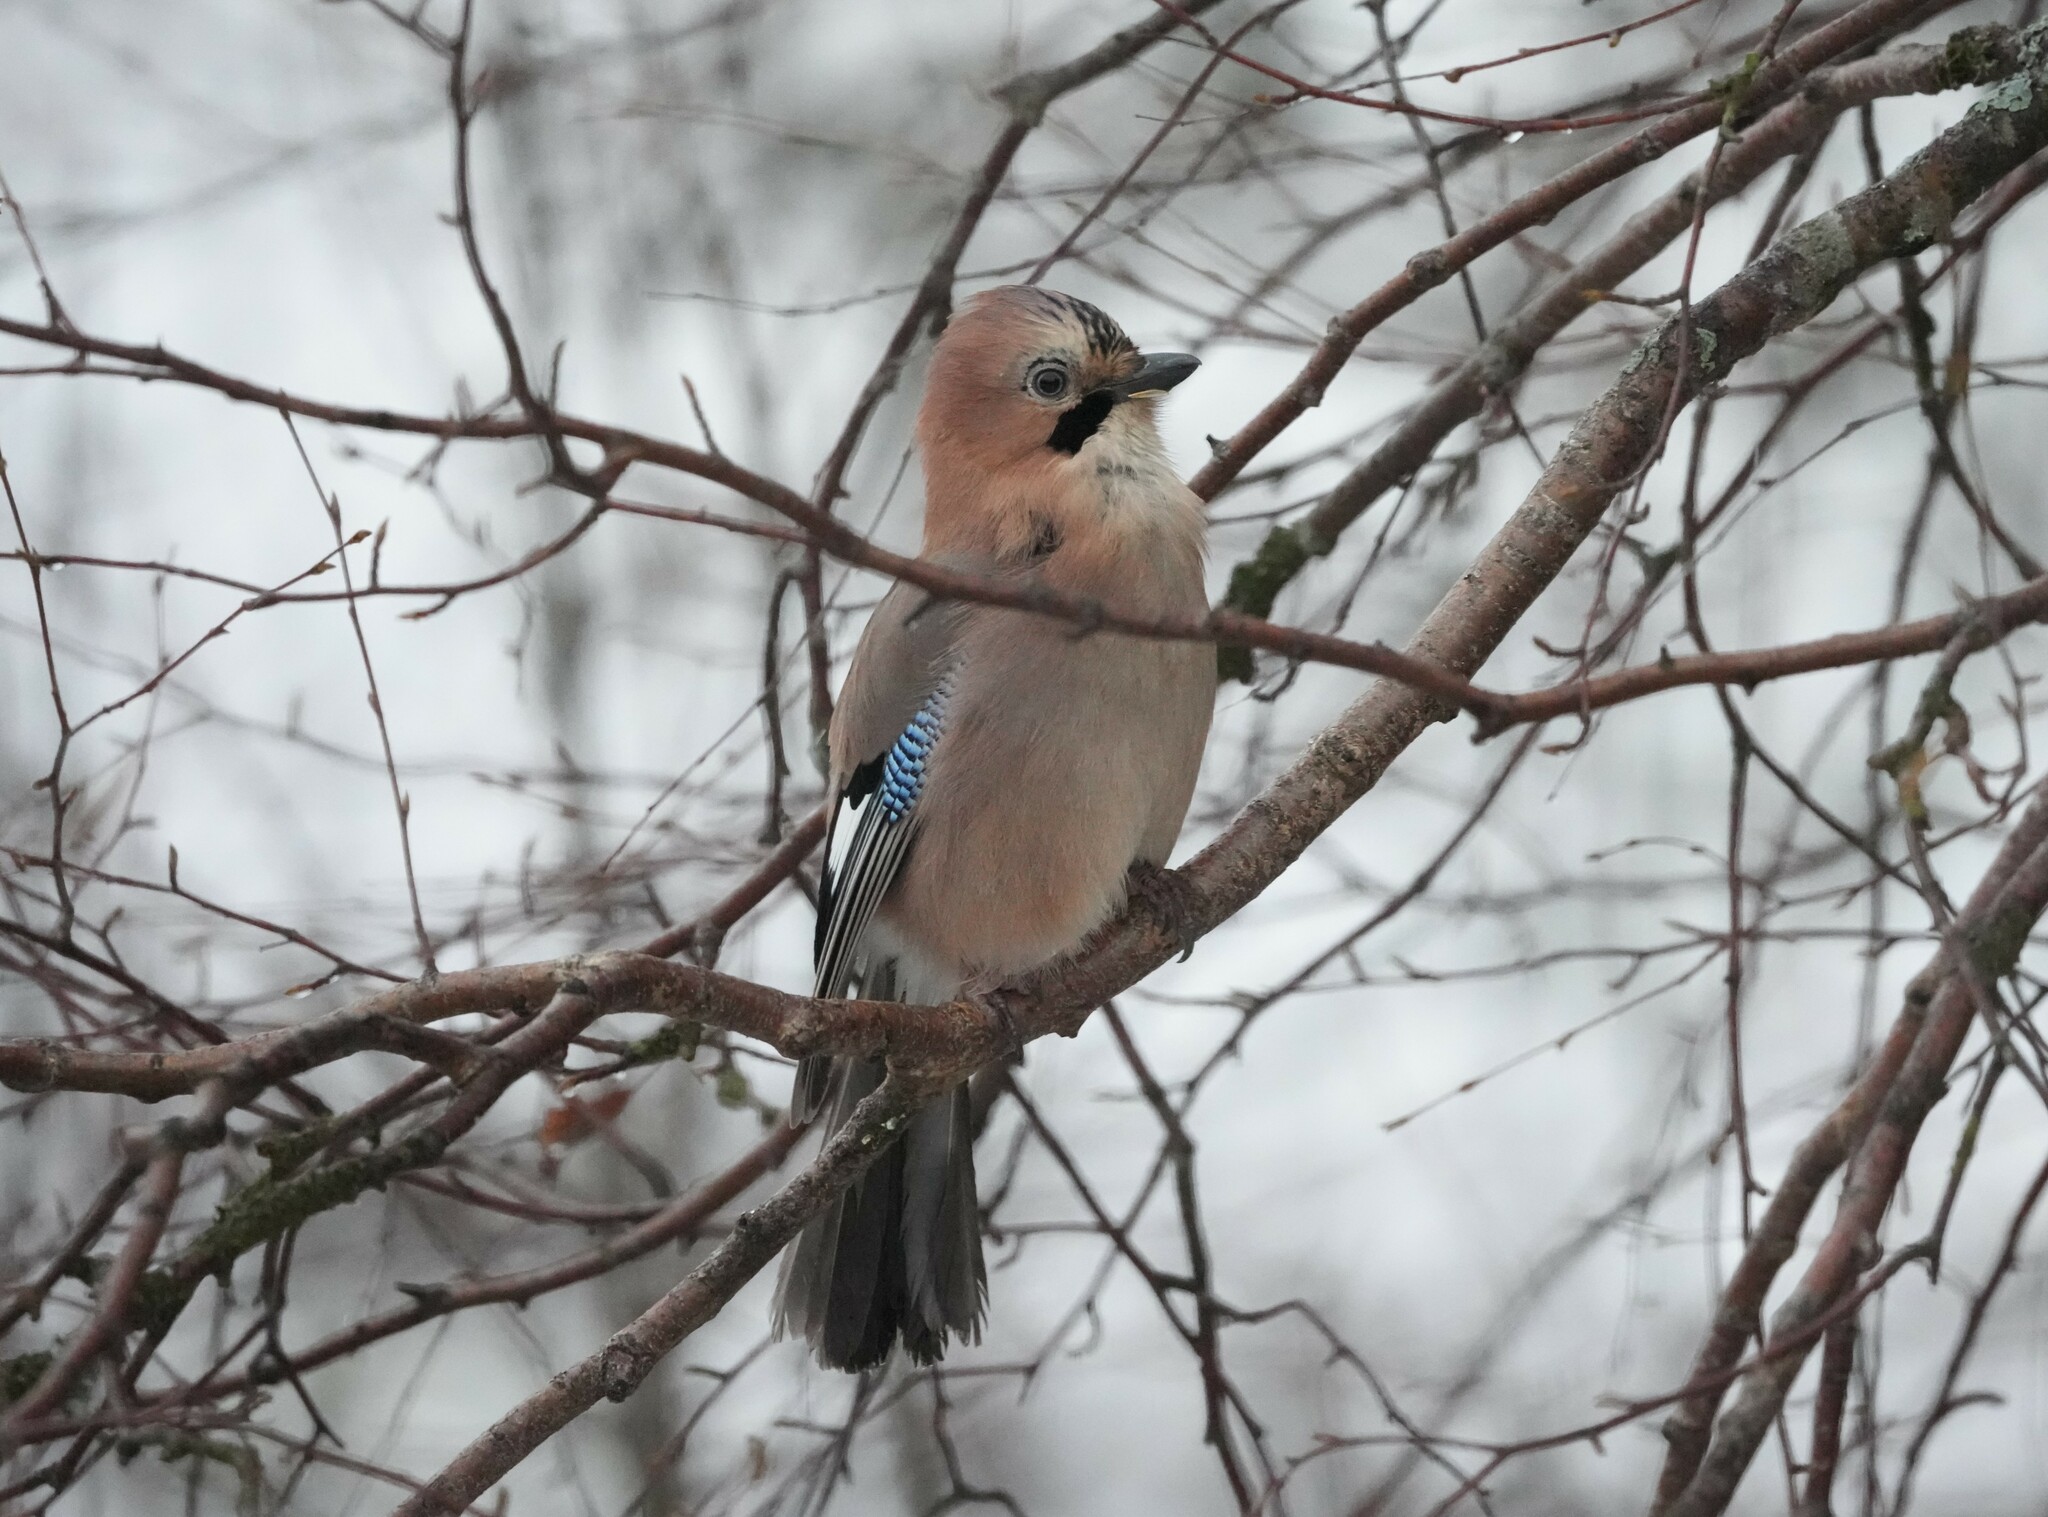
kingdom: Animalia
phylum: Chordata
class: Aves
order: Passeriformes
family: Corvidae
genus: Garrulus
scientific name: Garrulus glandarius
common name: Eurasian jay
